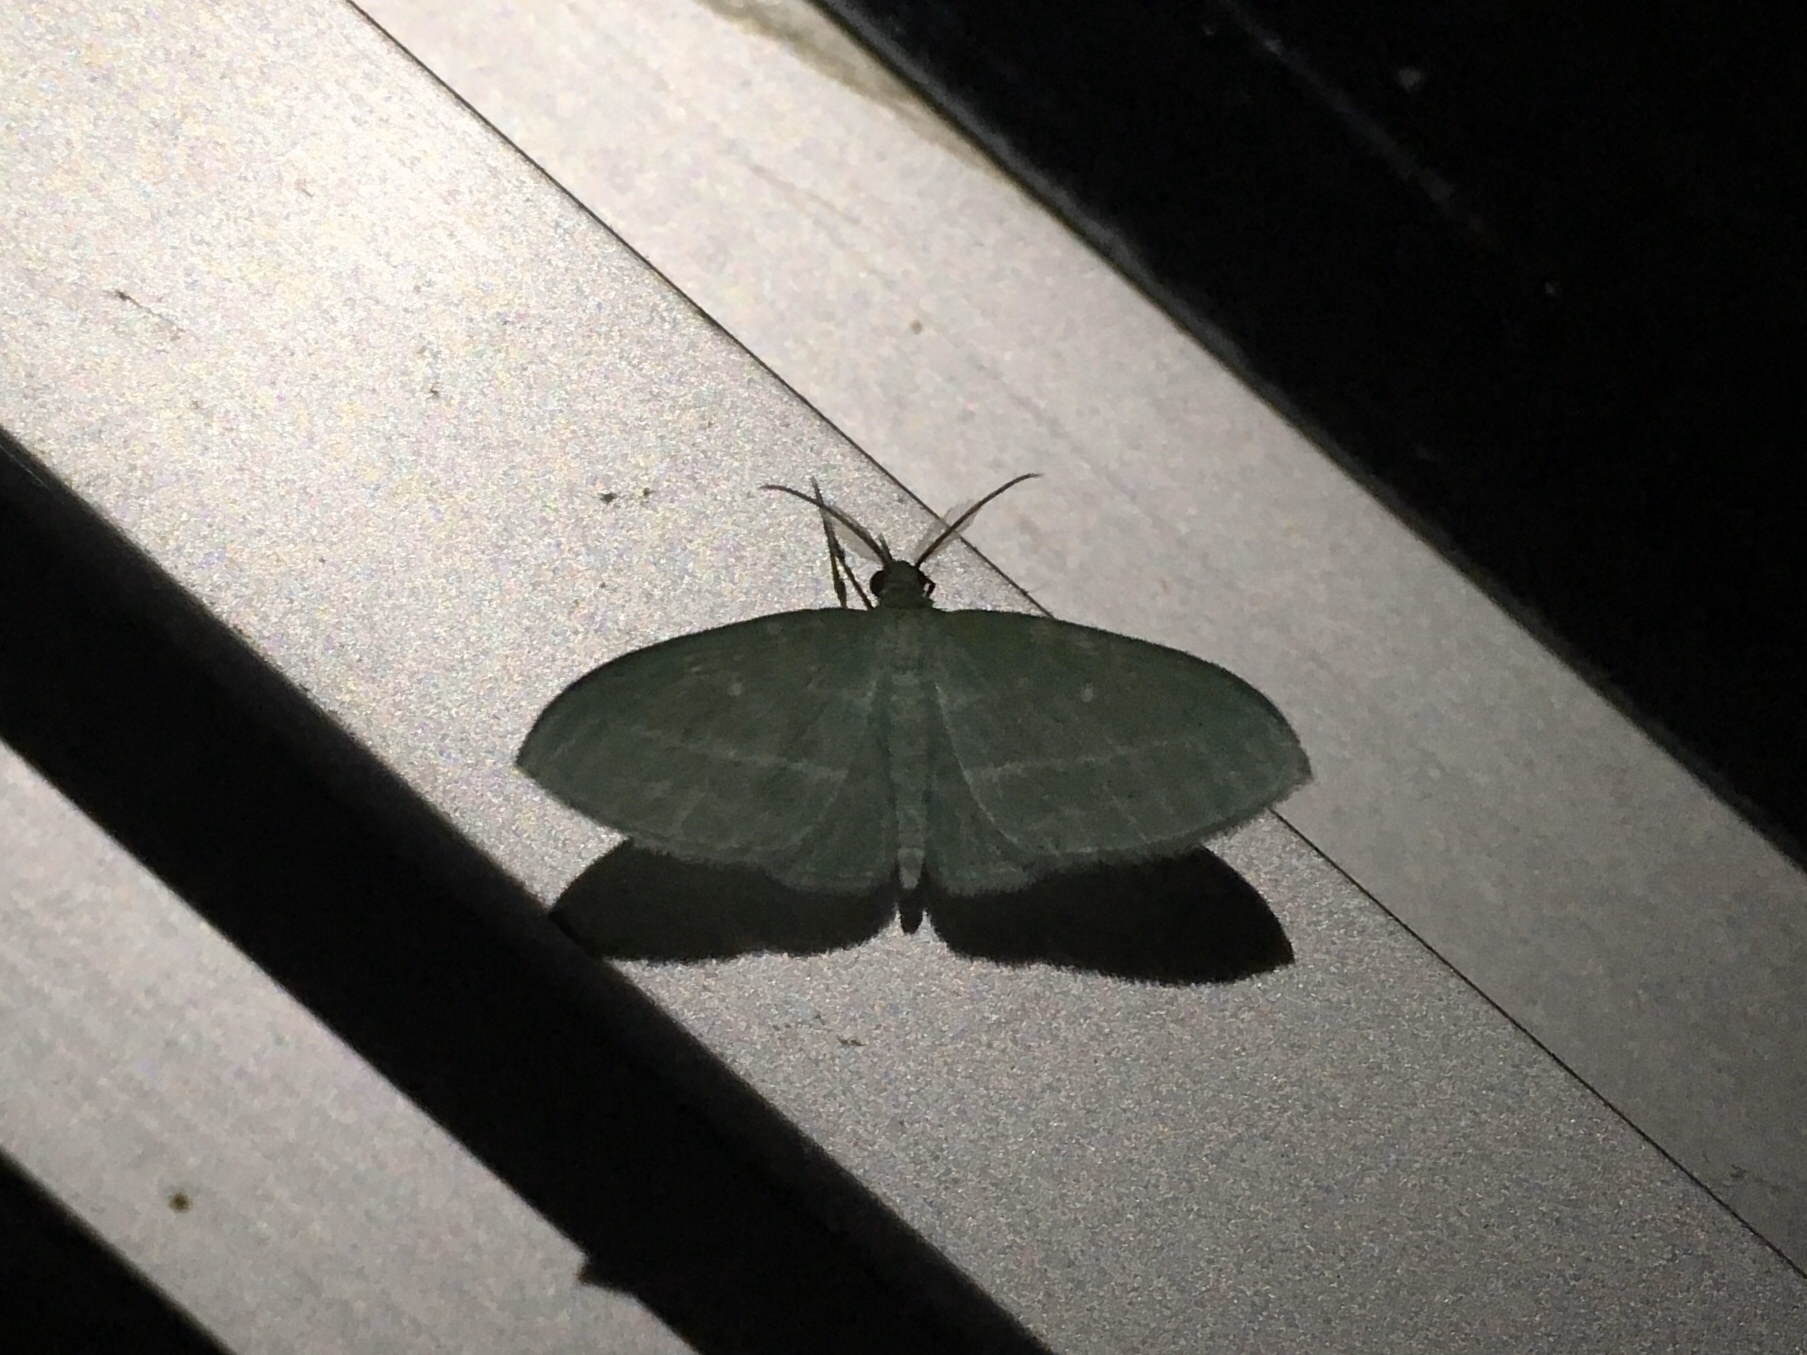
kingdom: Animalia
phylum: Arthropoda
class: Insecta
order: Lepidoptera
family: Geometridae
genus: Dyspteris
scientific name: Dyspteris abortivaria
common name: Bad-wing
